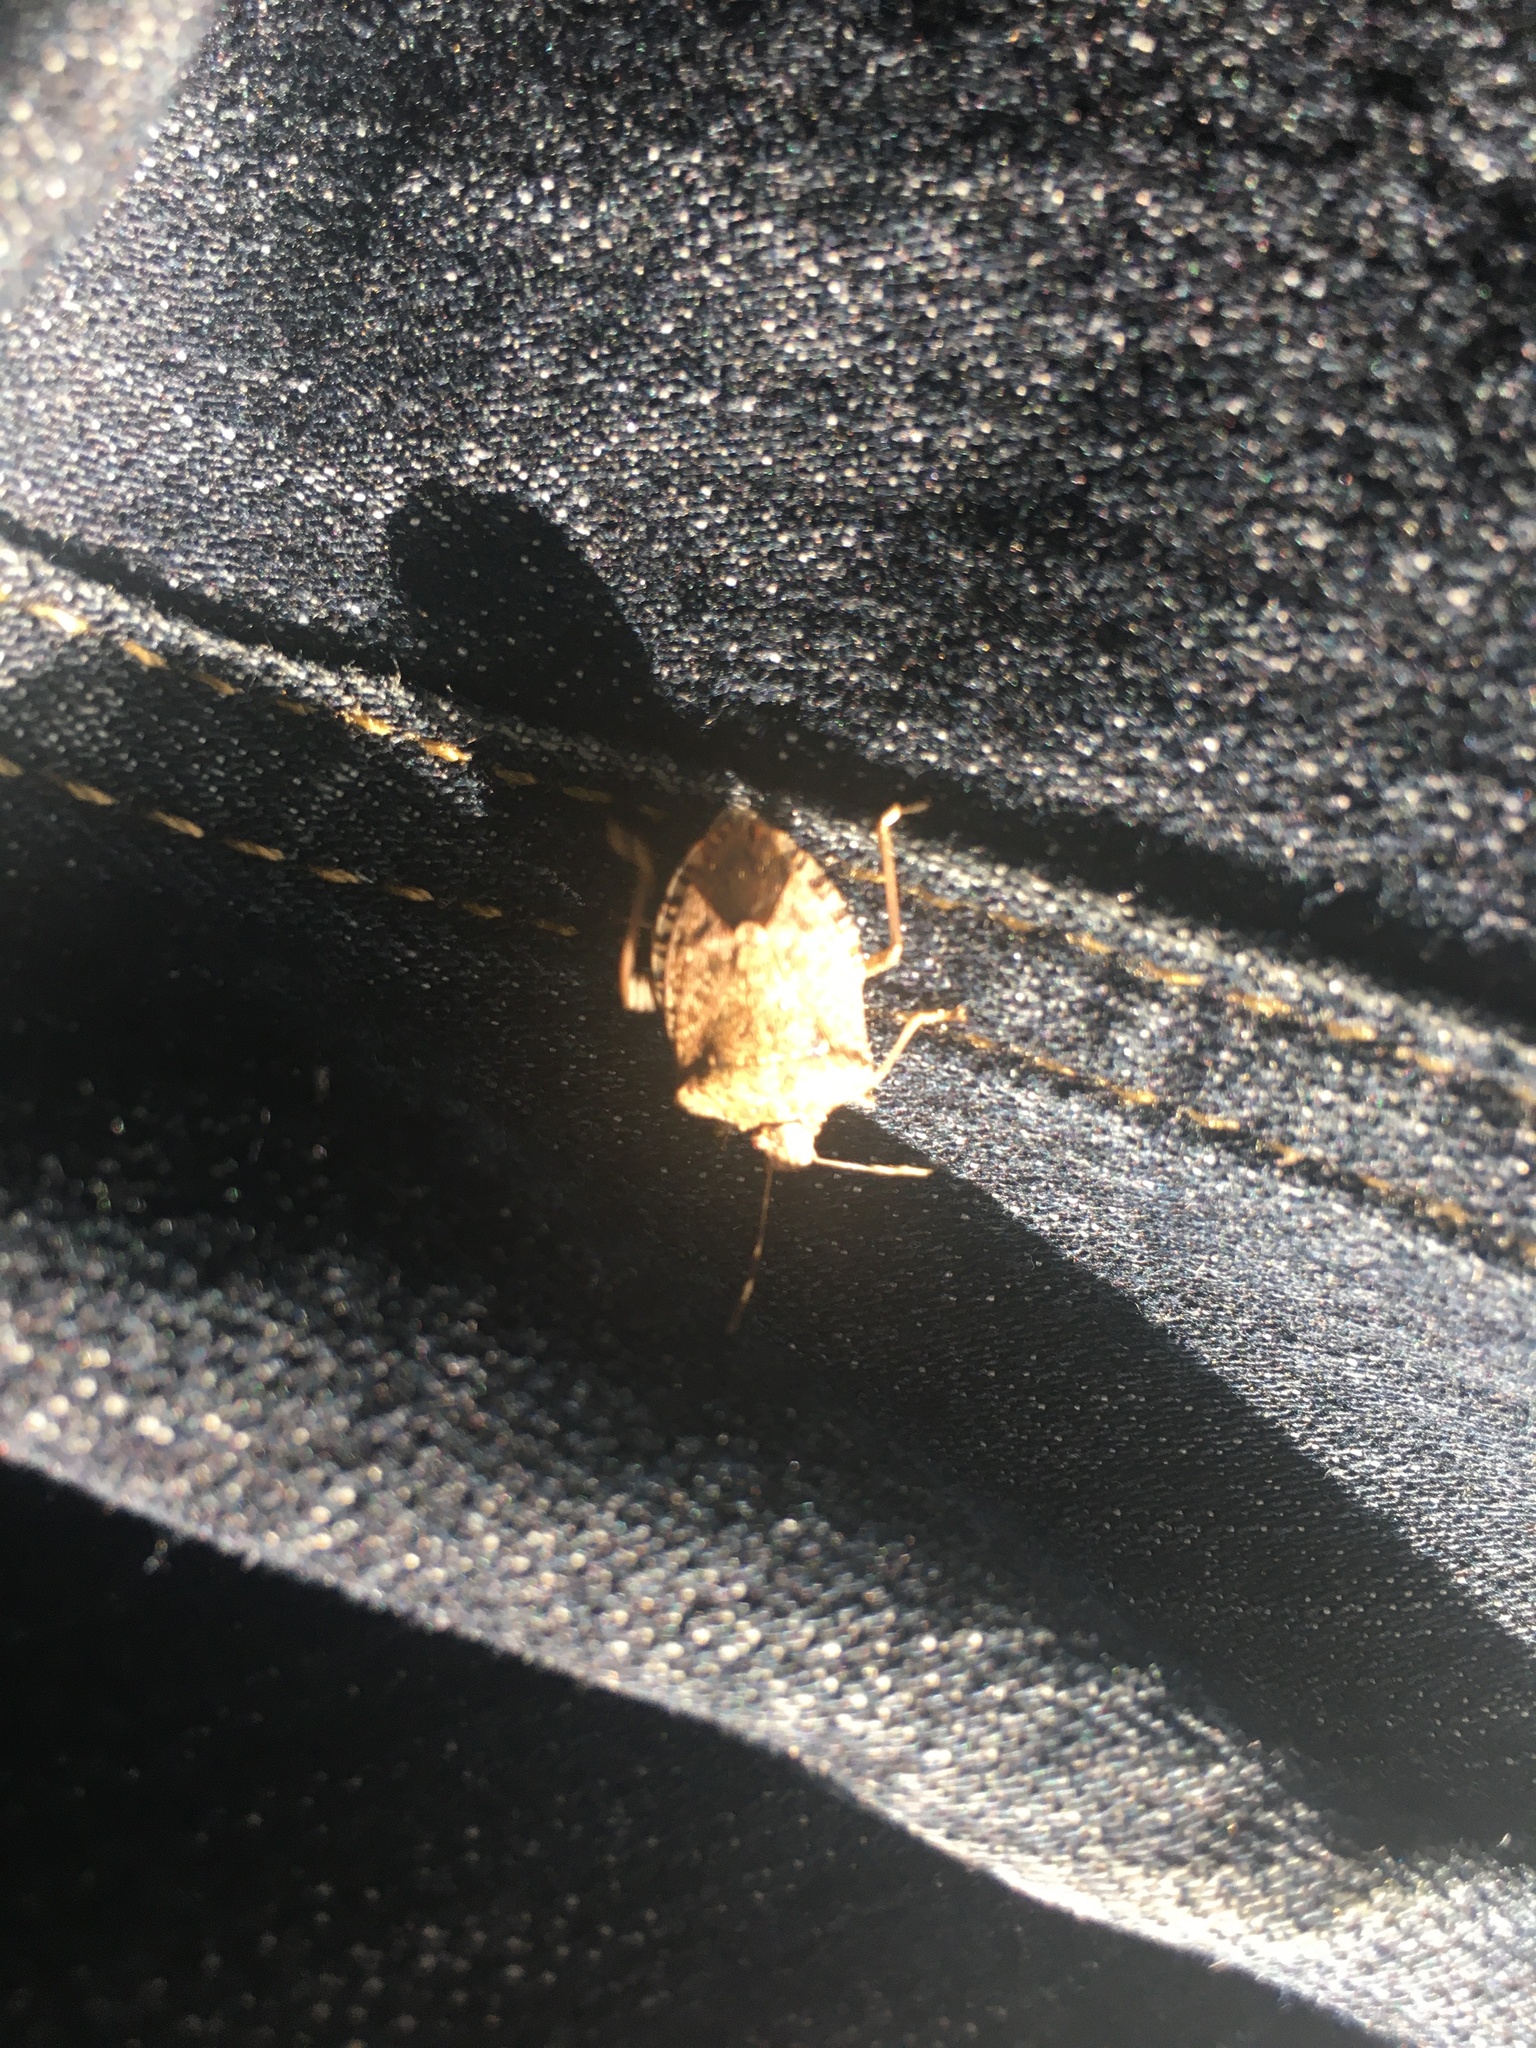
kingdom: Animalia
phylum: Arthropoda
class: Insecta
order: Hemiptera
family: Pentatomidae
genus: Halyomorpha
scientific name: Halyomorpha halys
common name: Brown marmorated stink bug
